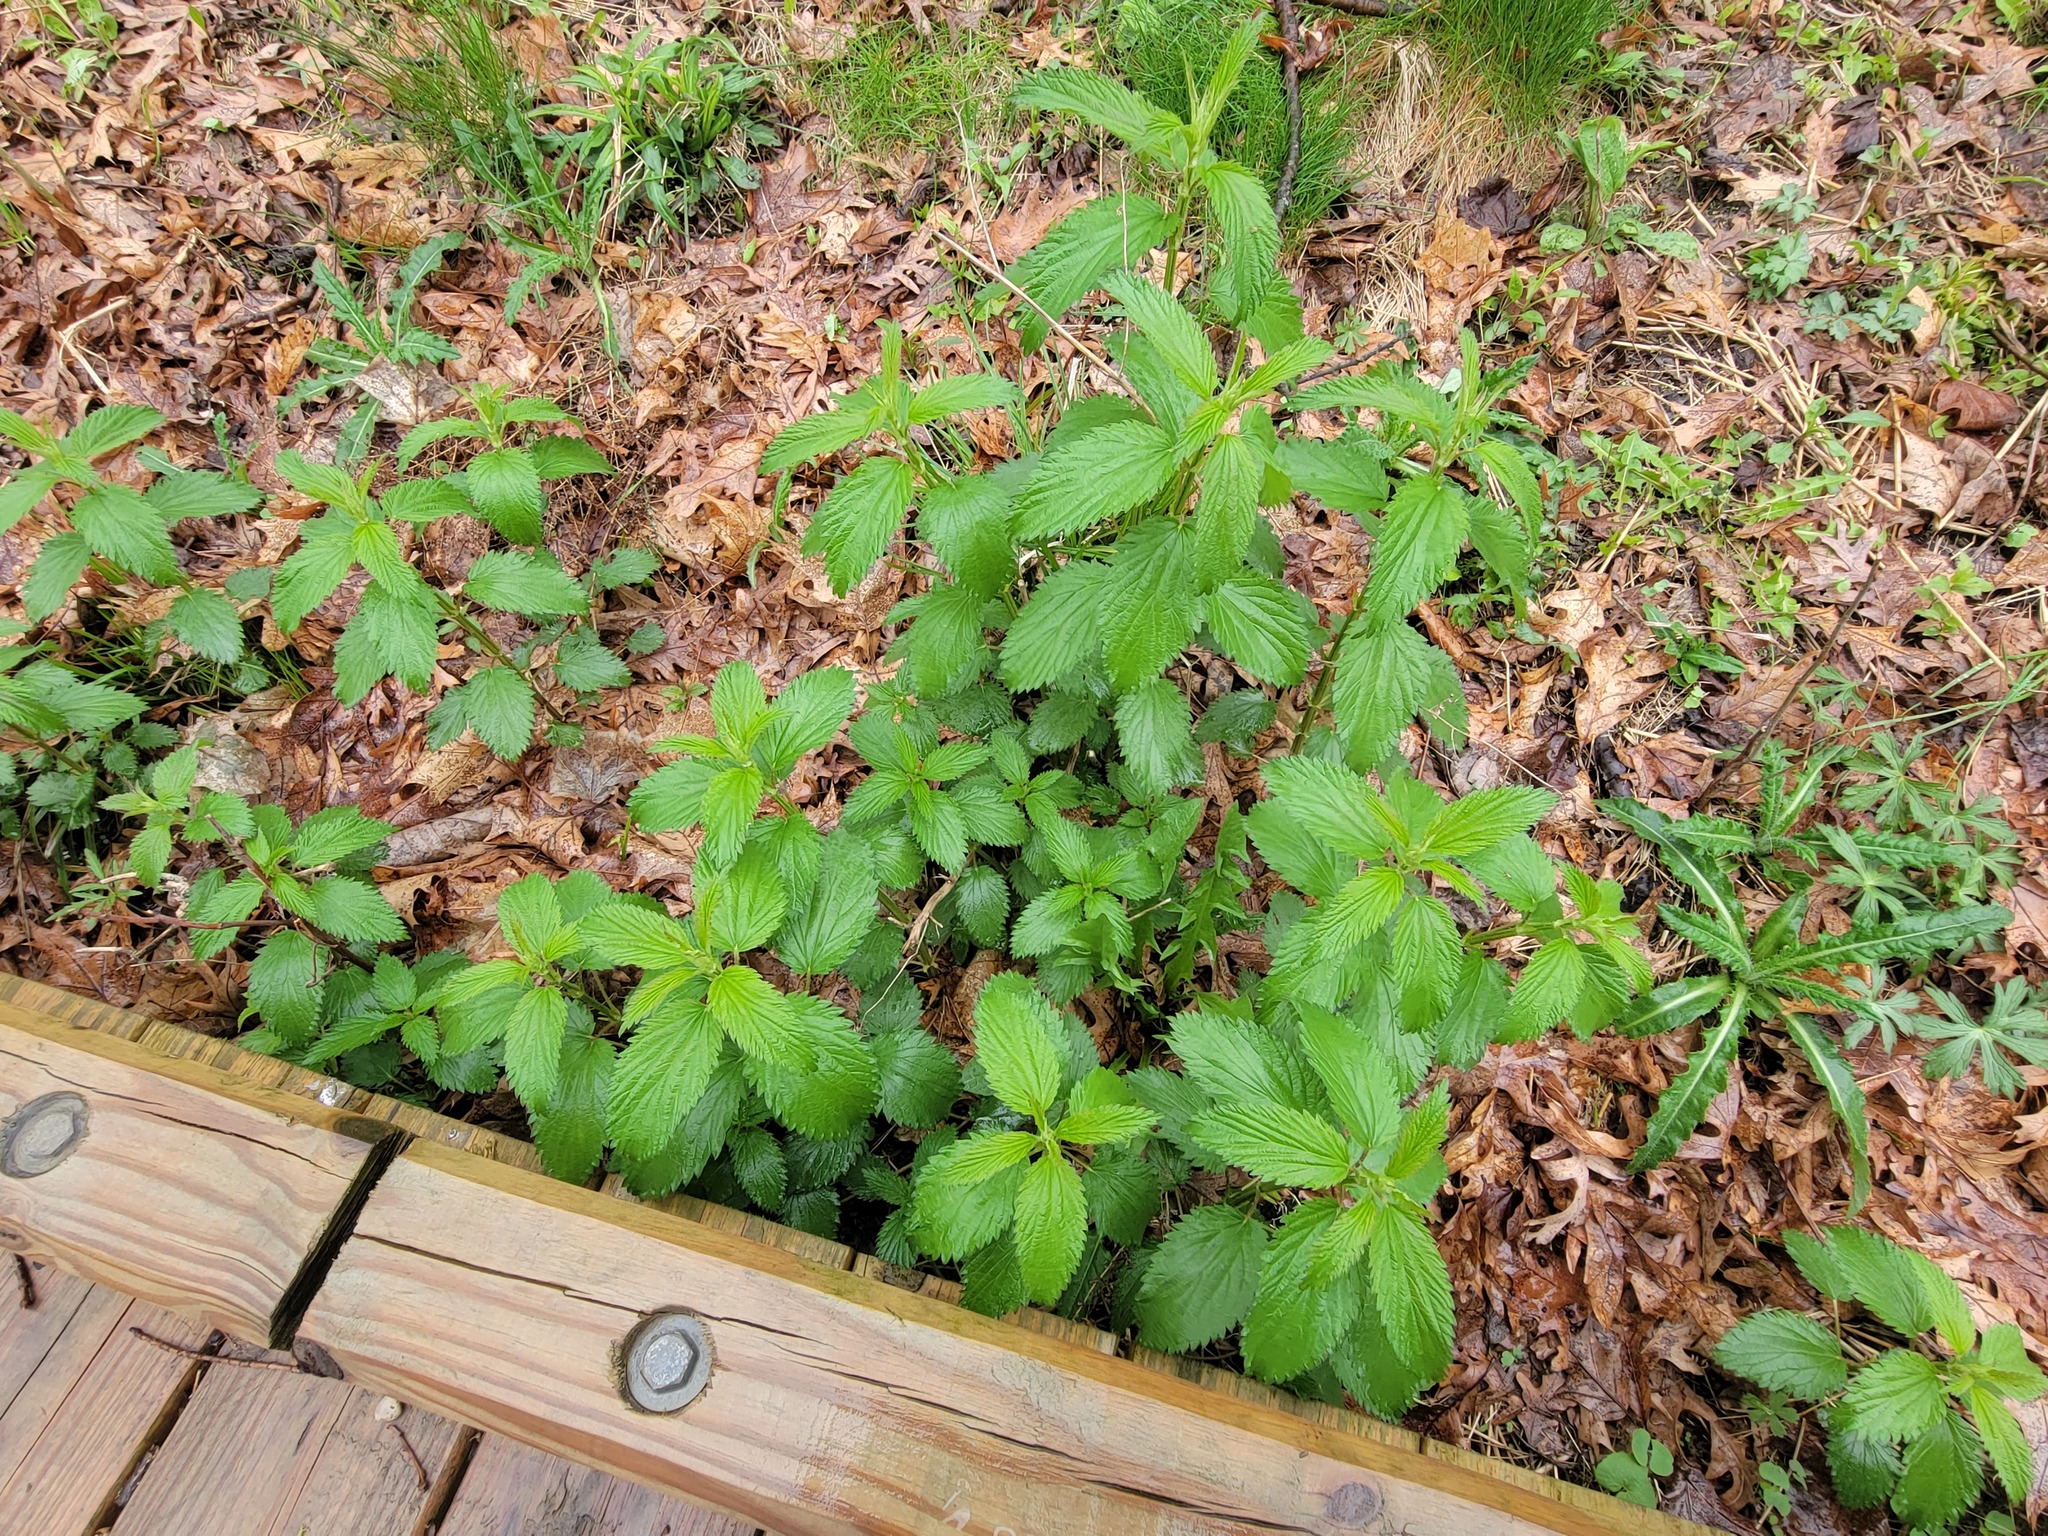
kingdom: Plantae
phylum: Tracheophyta
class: Magnoliopsida
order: Rosales
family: Urticaceae
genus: Urtica
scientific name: Urtica gracilis
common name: Slender stinging nettle
